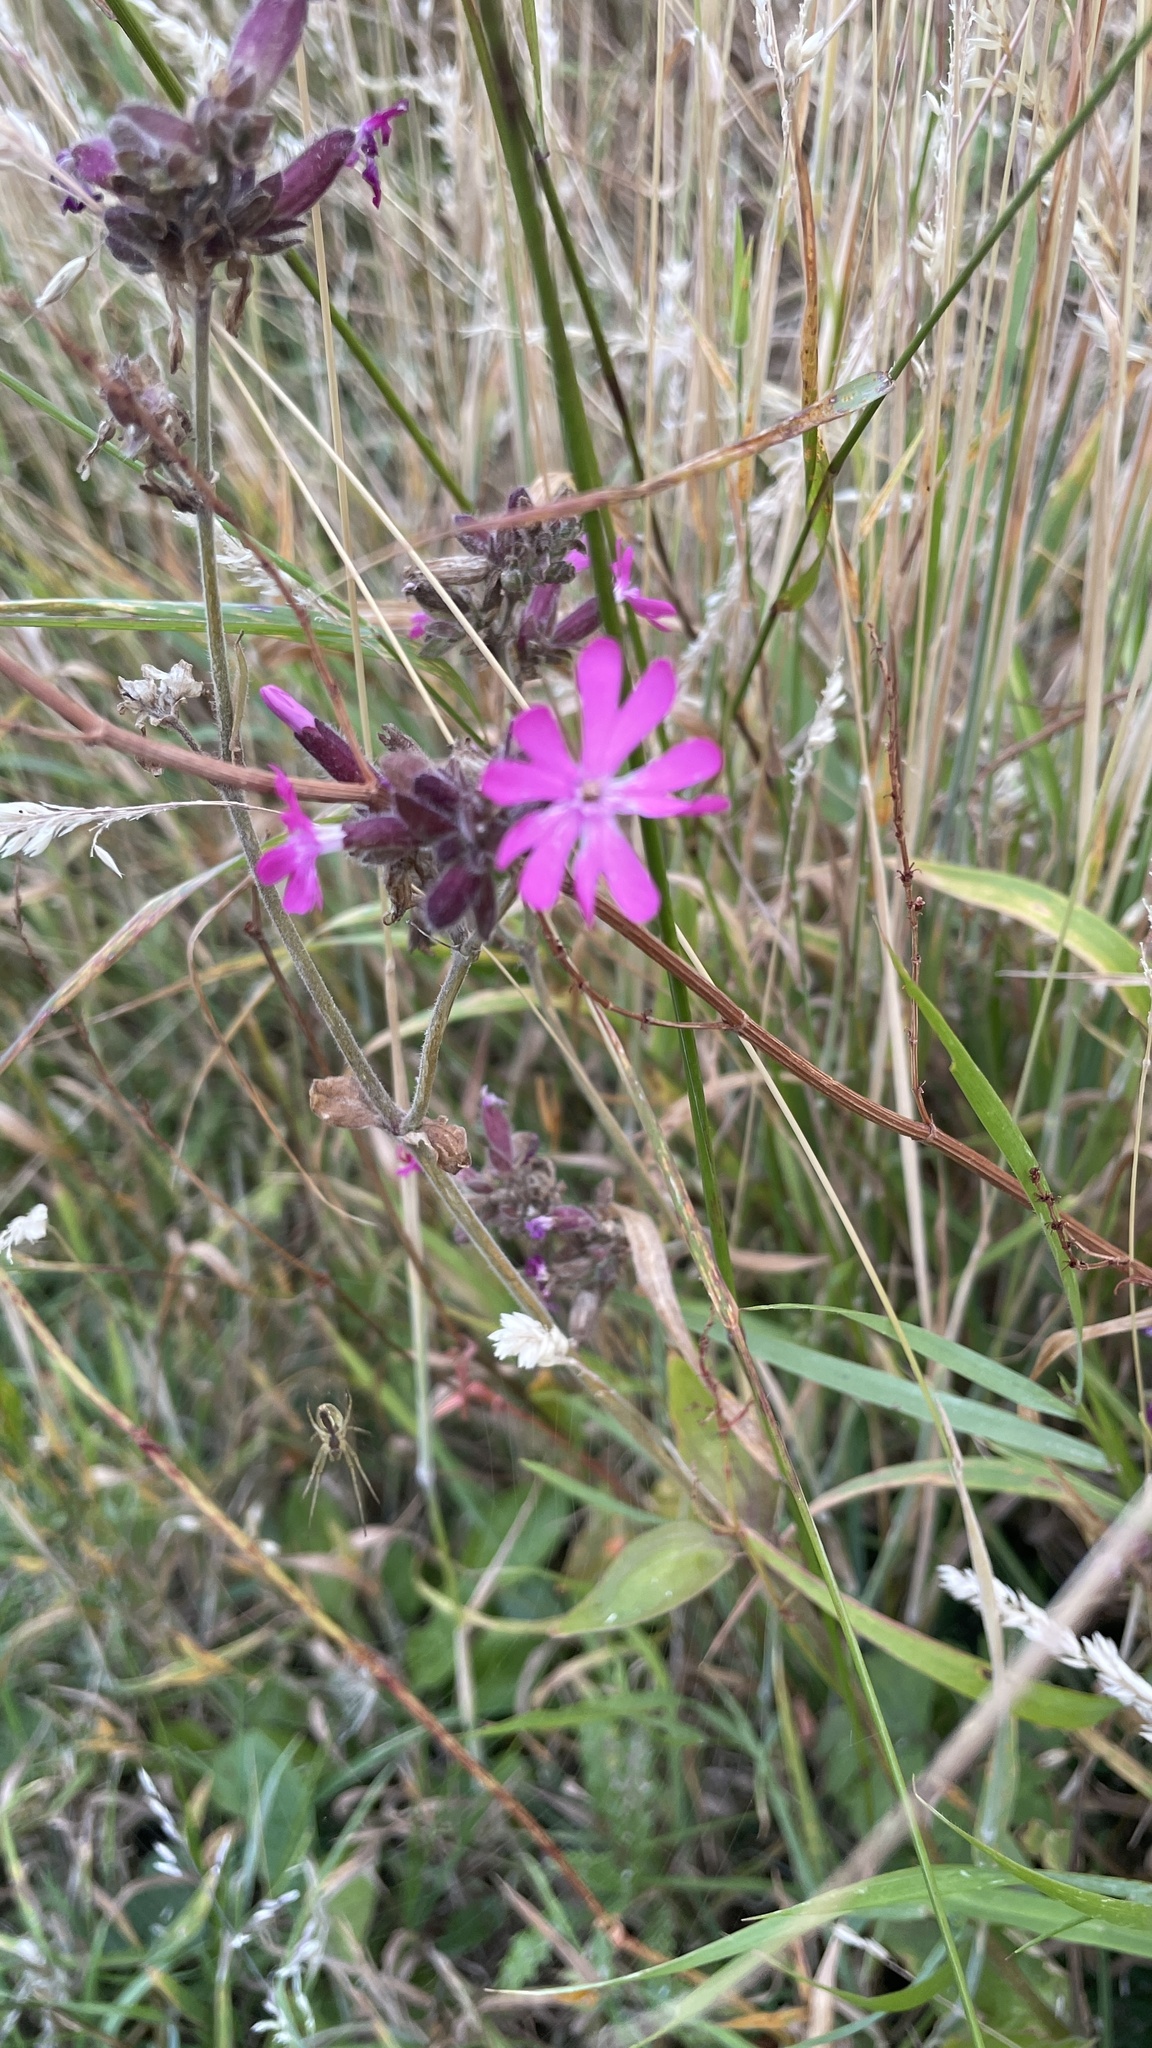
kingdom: Plantae
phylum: Tracheophyta
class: Magnoliopsida
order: Caryophyllales
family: Caryophyllaceae
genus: Silene
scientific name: Silene dioica
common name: Red campion
